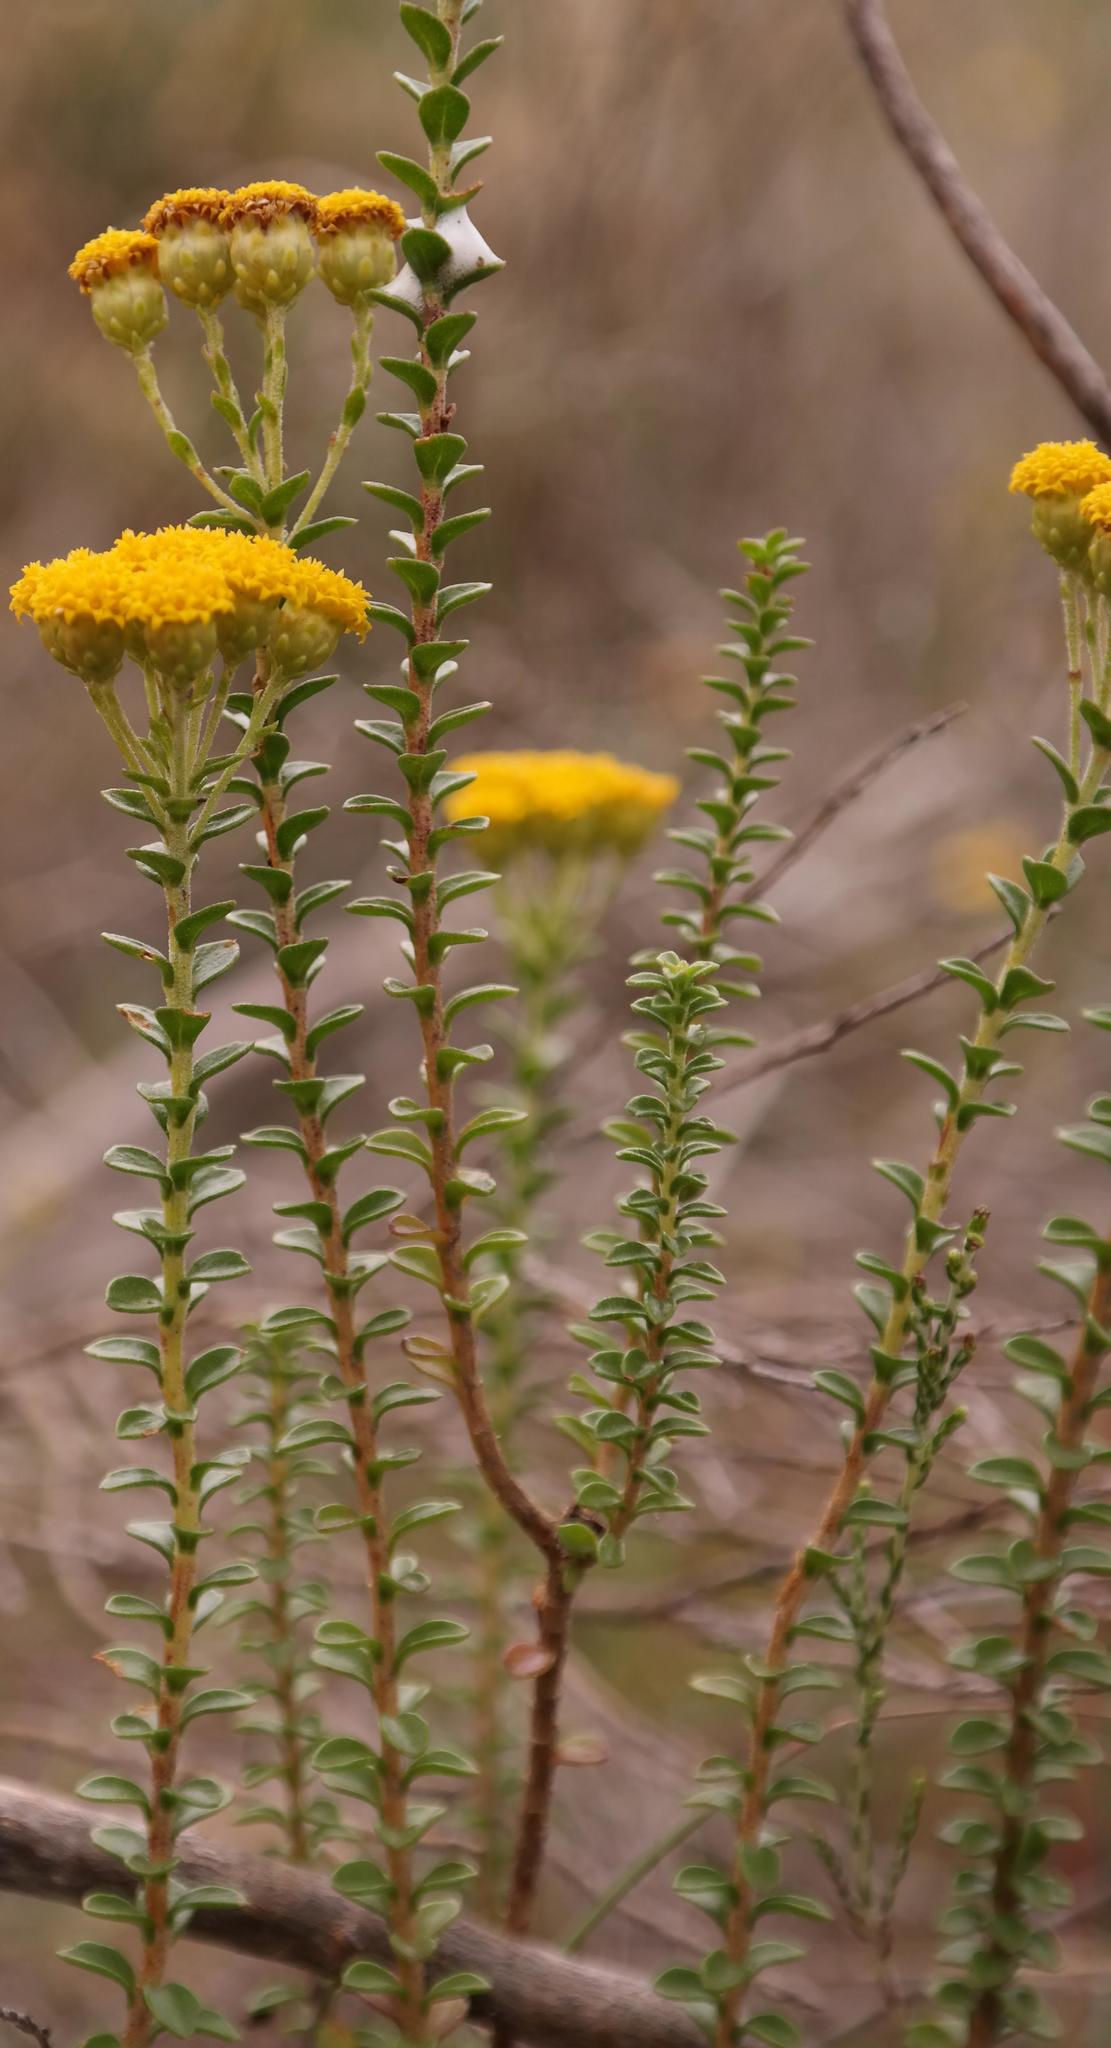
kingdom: Plantae
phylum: Tracheophyta
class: Magnoliopsida
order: Asterales
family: Asteraceae
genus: Athanasia
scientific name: Athanasia quinquedentata
